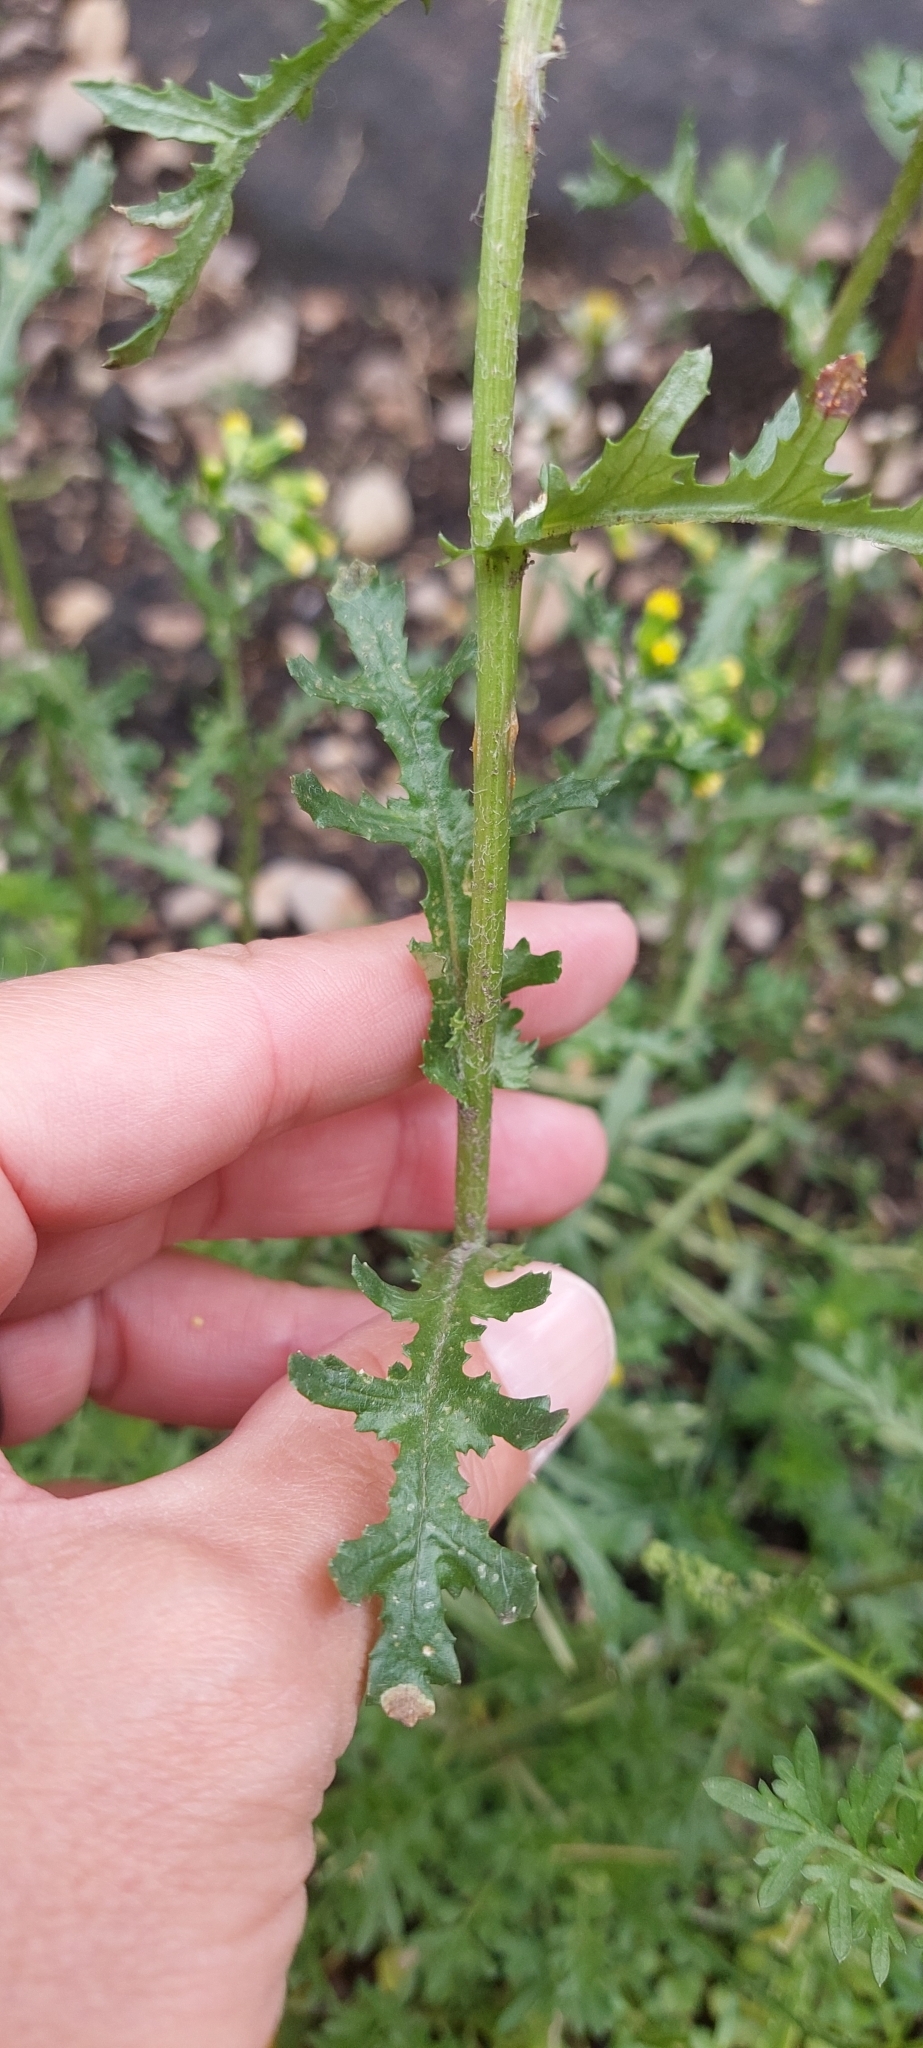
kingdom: Plantae
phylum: Tracheophyta
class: Magnoliopsida
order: Asterales
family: Asteraceae
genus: Senecio
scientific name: Senecio vulgaris
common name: Old-man-in-the-spring
